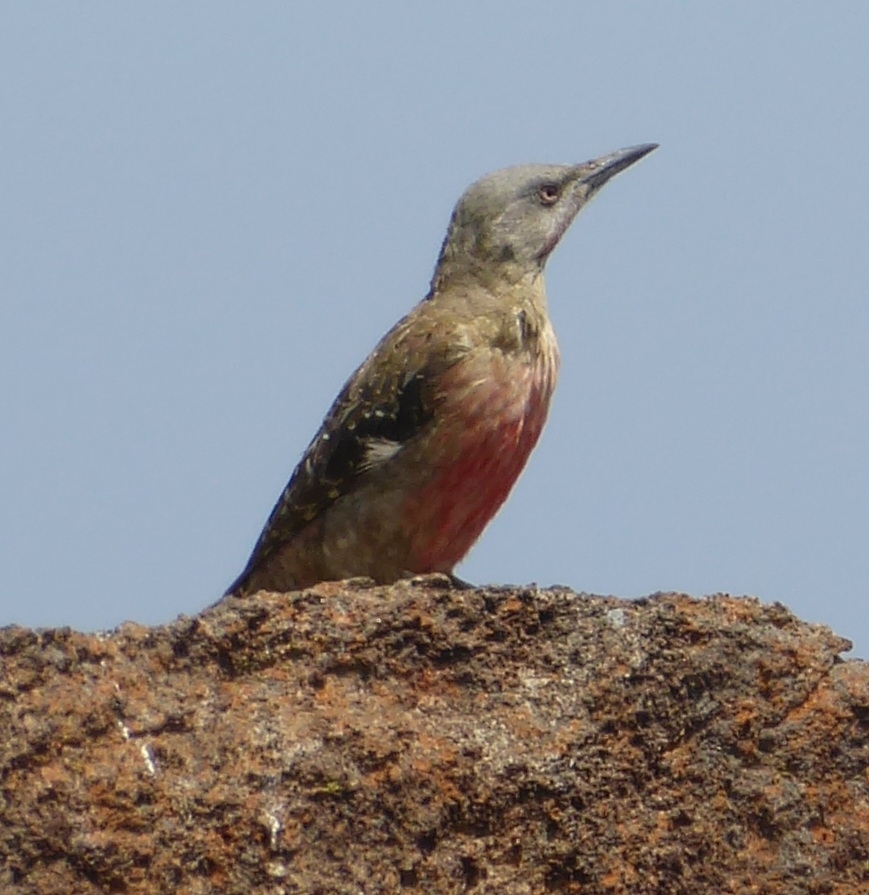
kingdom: Animalia
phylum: Chordata
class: Aves
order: Piciformes
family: Picidae
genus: Geocolaptes
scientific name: Geocolaptes olivaceus
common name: Ground woodpecker
